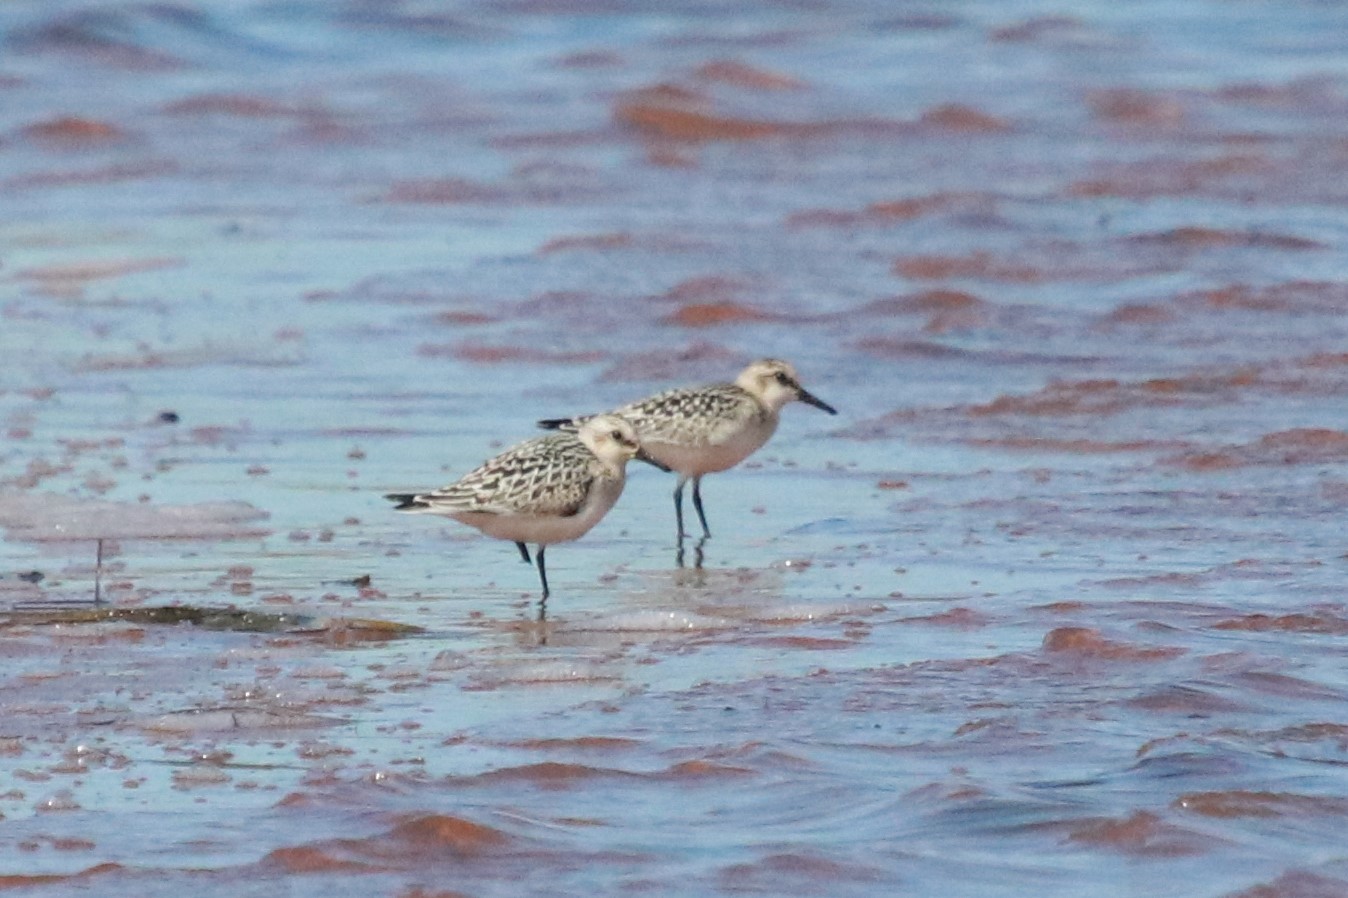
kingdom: Animalia
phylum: Chordata
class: Aves
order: Charadriiformes
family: Scolopacidae
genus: Calidris
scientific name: Calidris alba
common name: Sanderling
